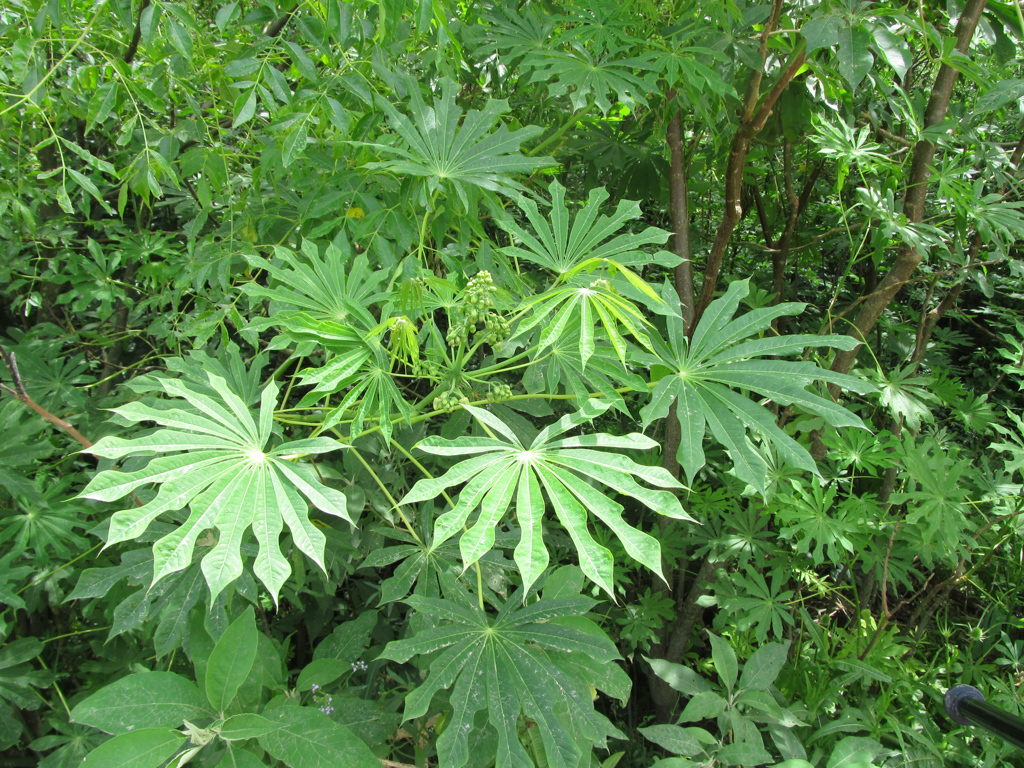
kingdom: Plantae
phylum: Tracheophyta
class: Magnoliopsida
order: Malpighiales
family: Euphorbiaceae
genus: Manihot
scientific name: Manihot grahamii
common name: Graham's manihot
